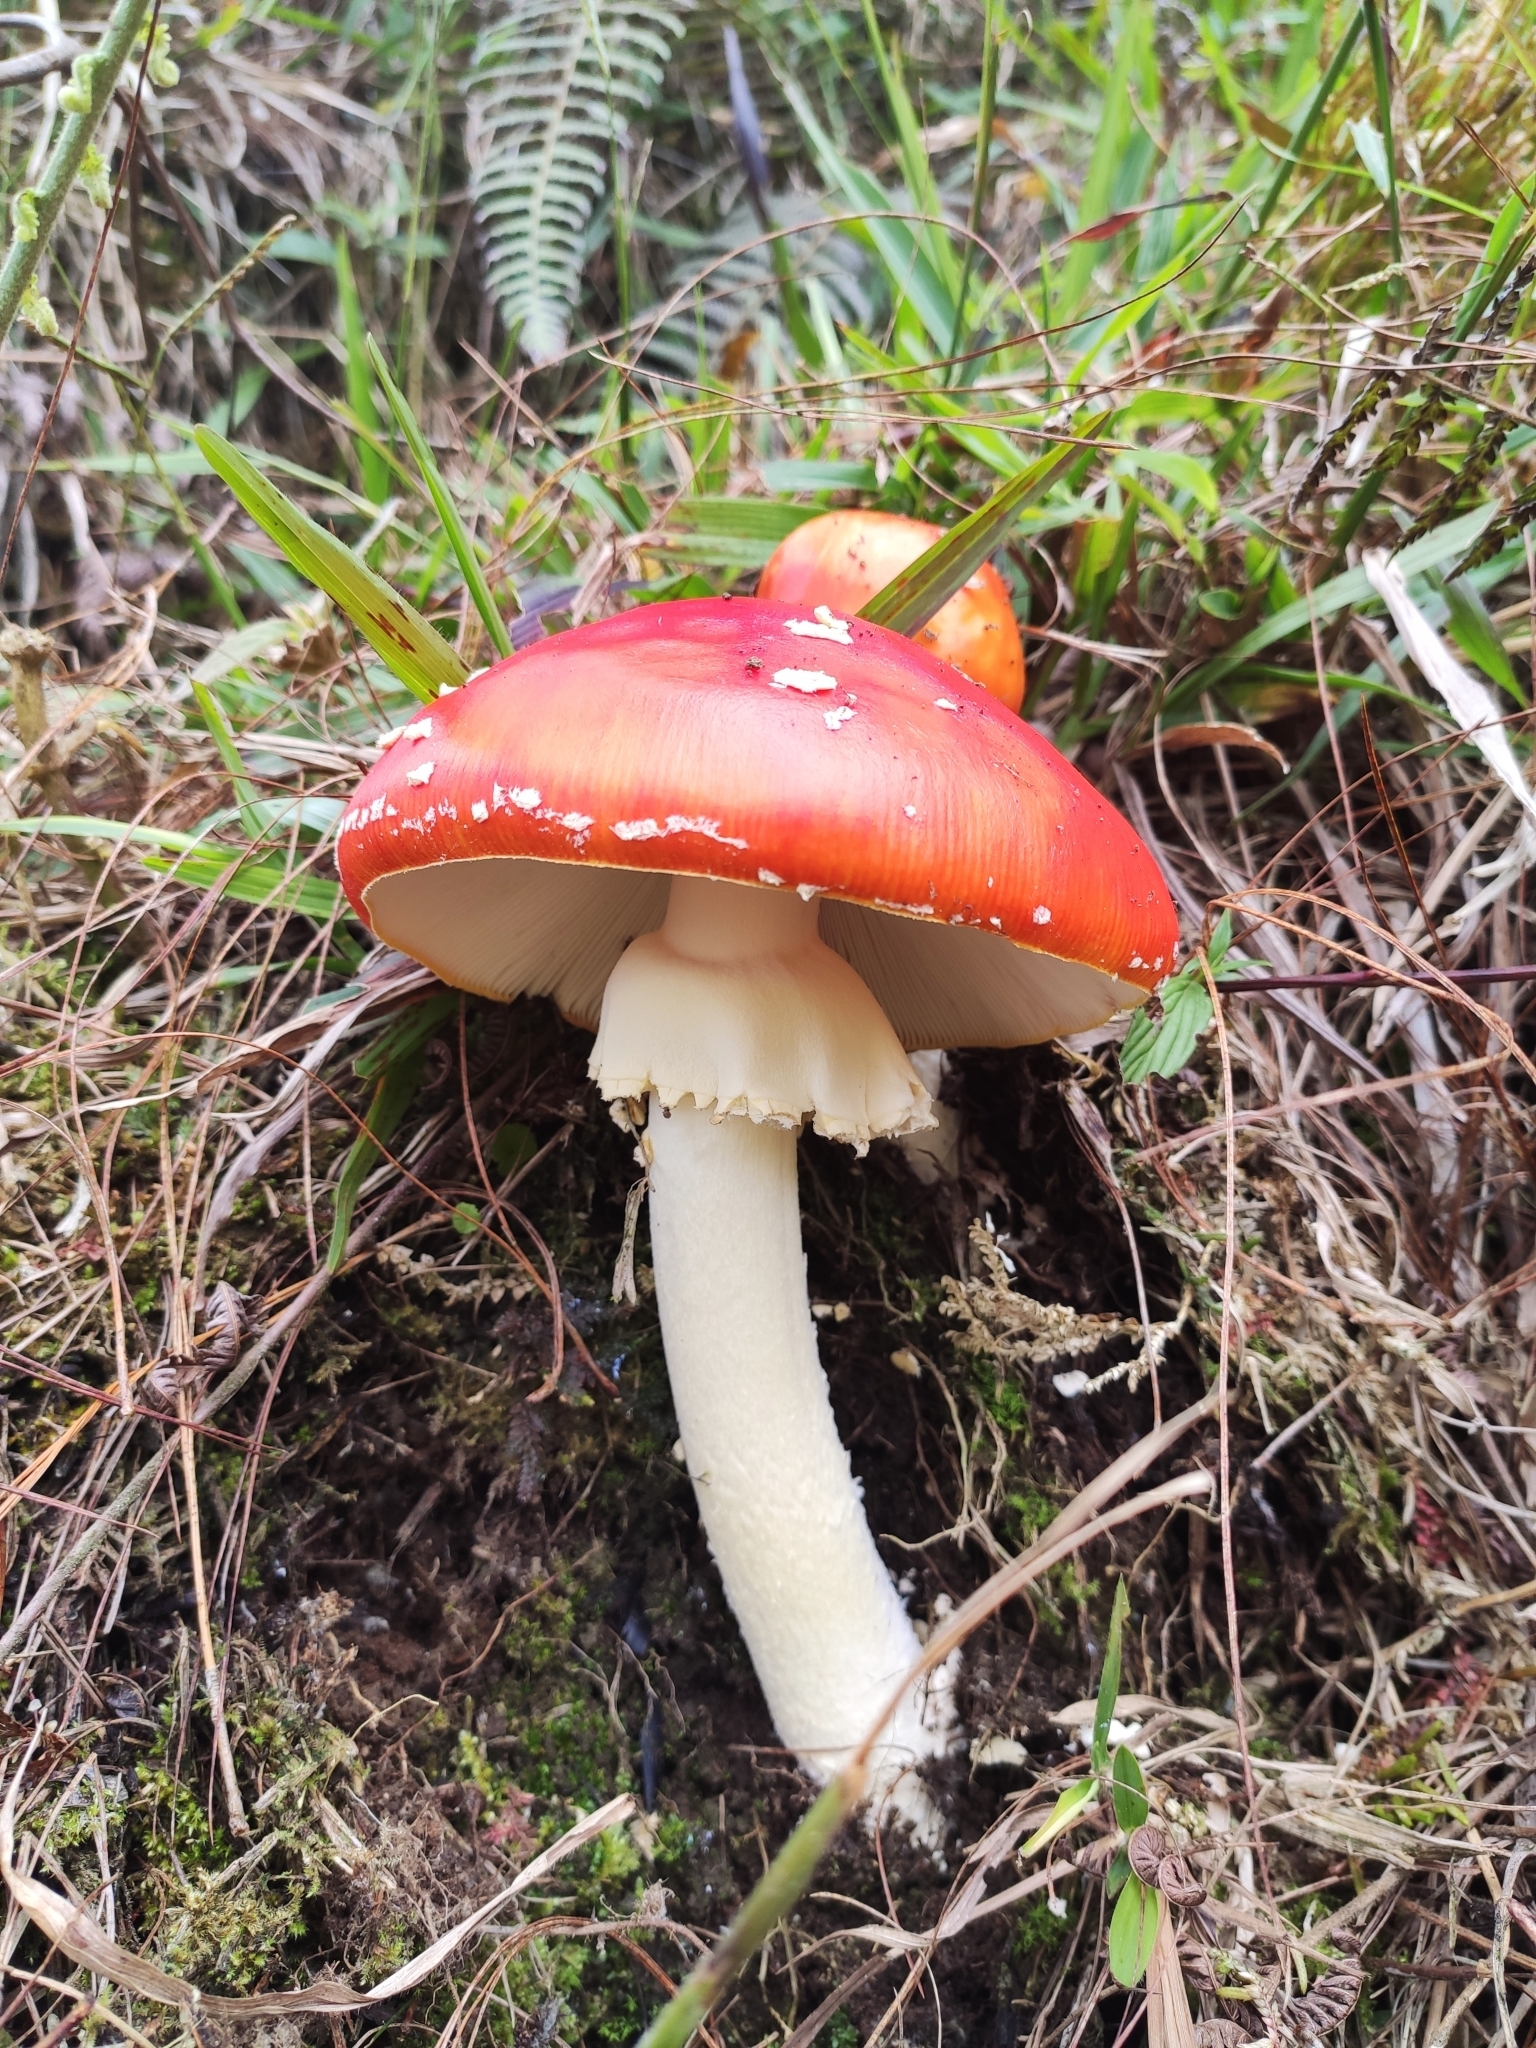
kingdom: Fungi
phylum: Basidiomycota
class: Agaricomycetes
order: Agaricales
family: Amanitaceae
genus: Amanita
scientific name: Amanita muscaria
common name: Fly agaric
